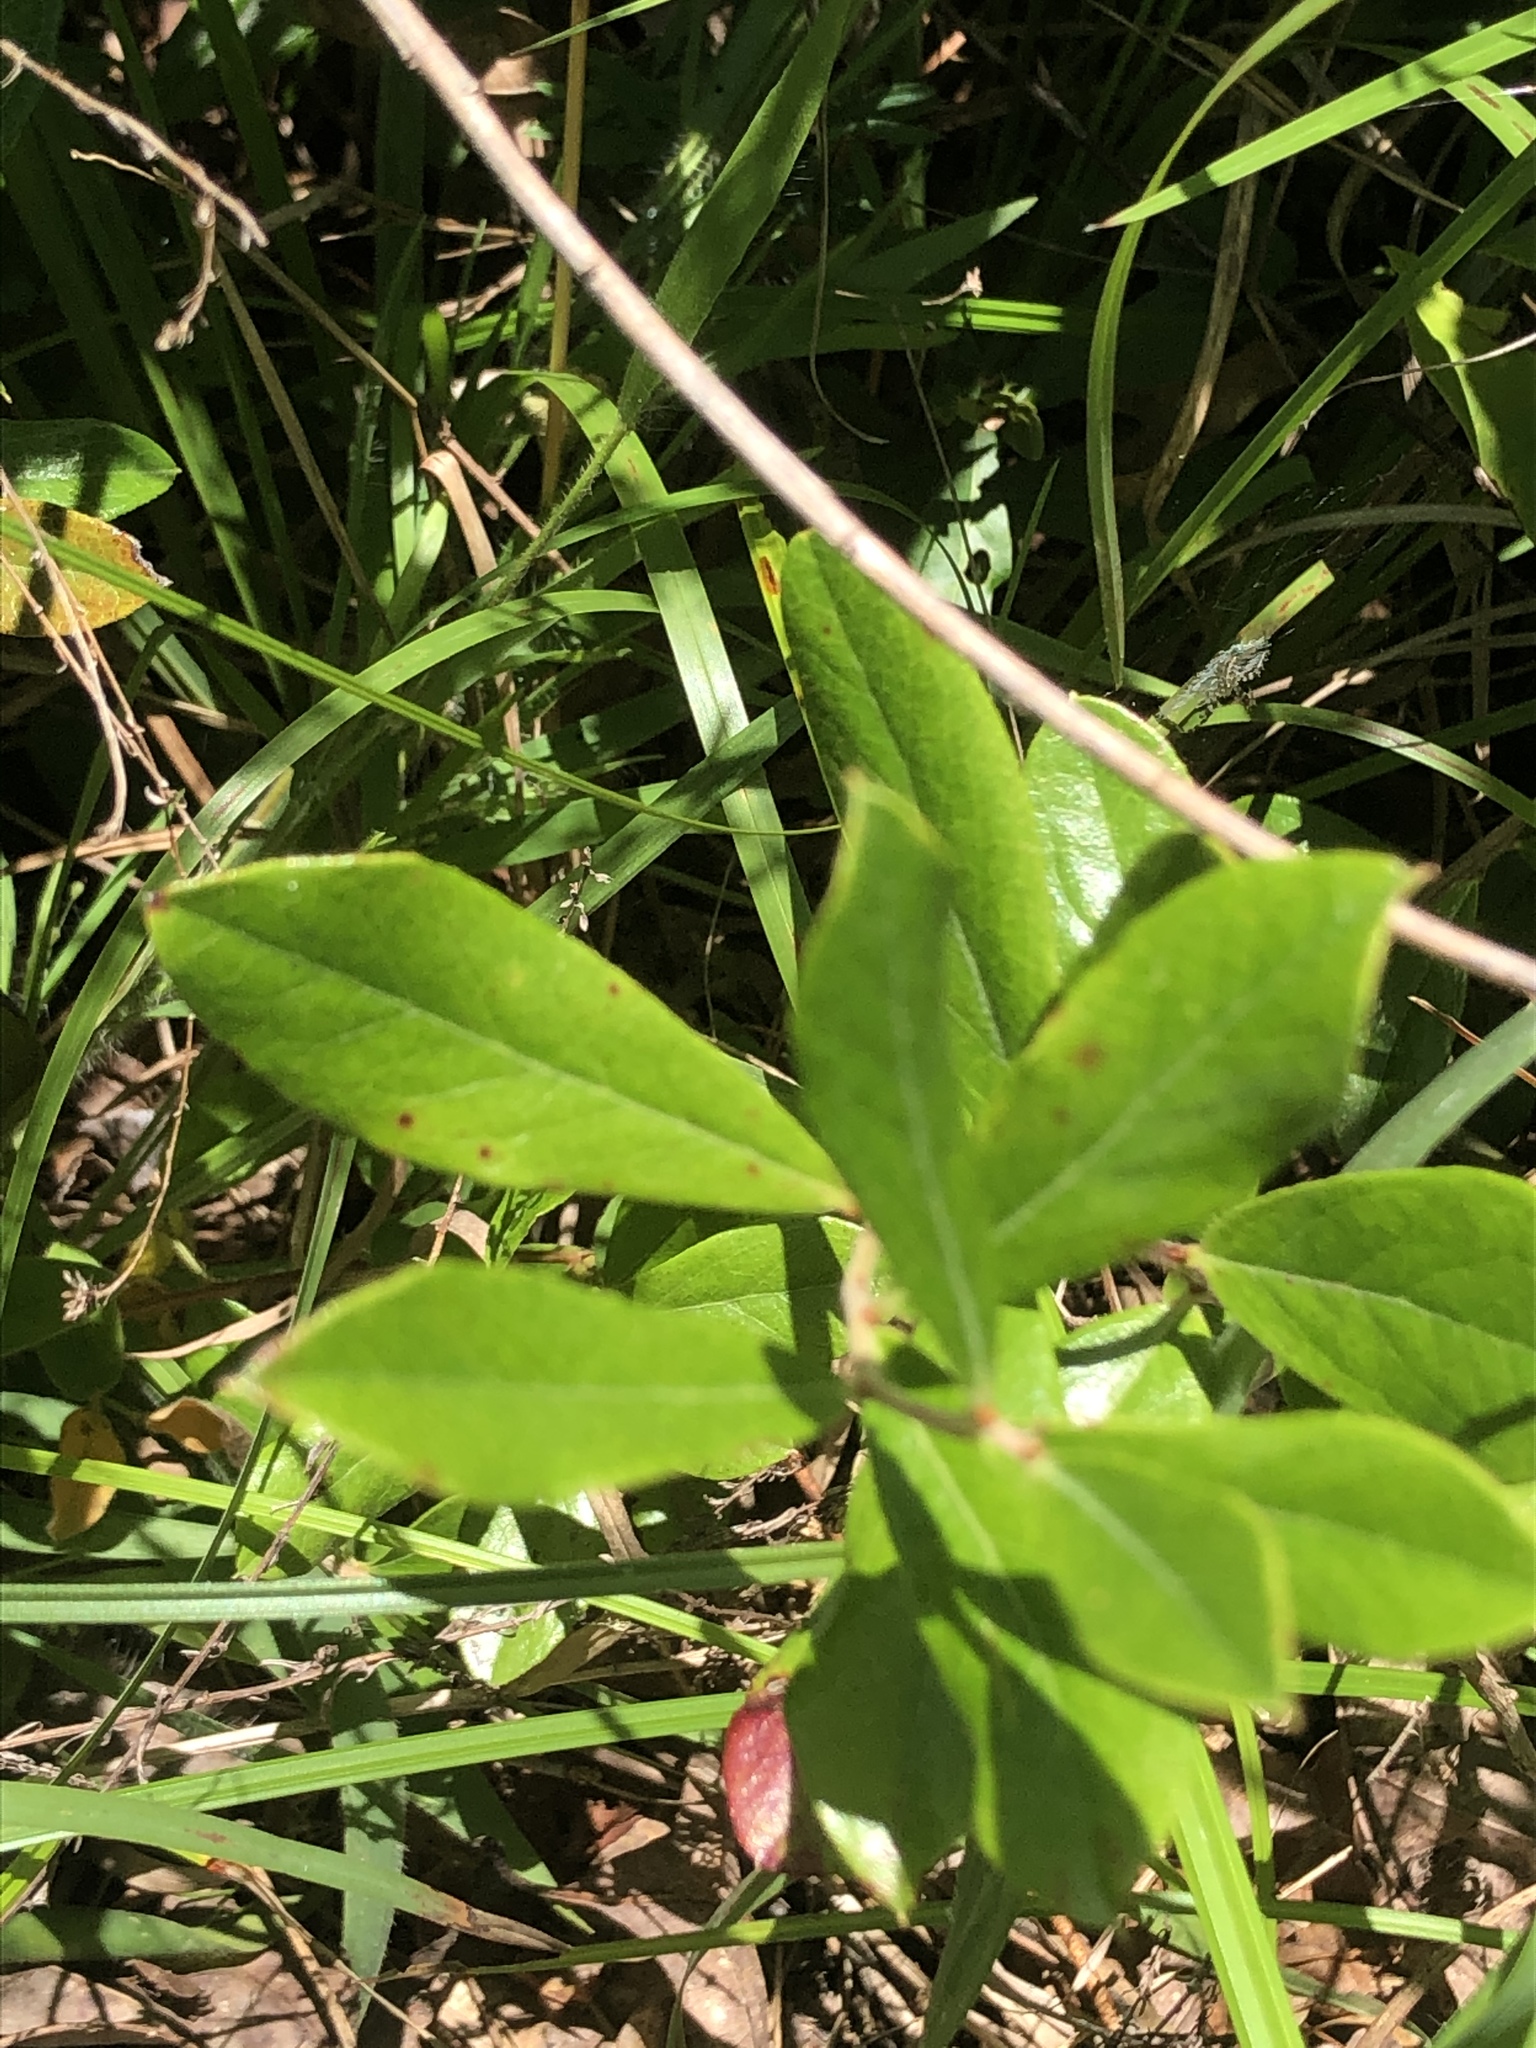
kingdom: Plantae
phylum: Tracheophyta
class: Magnoliopsida
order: Ericales
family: Ericaceae
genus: Gaylussacia
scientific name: Gaylussacia dumosa
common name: Dwarf huckleberry
